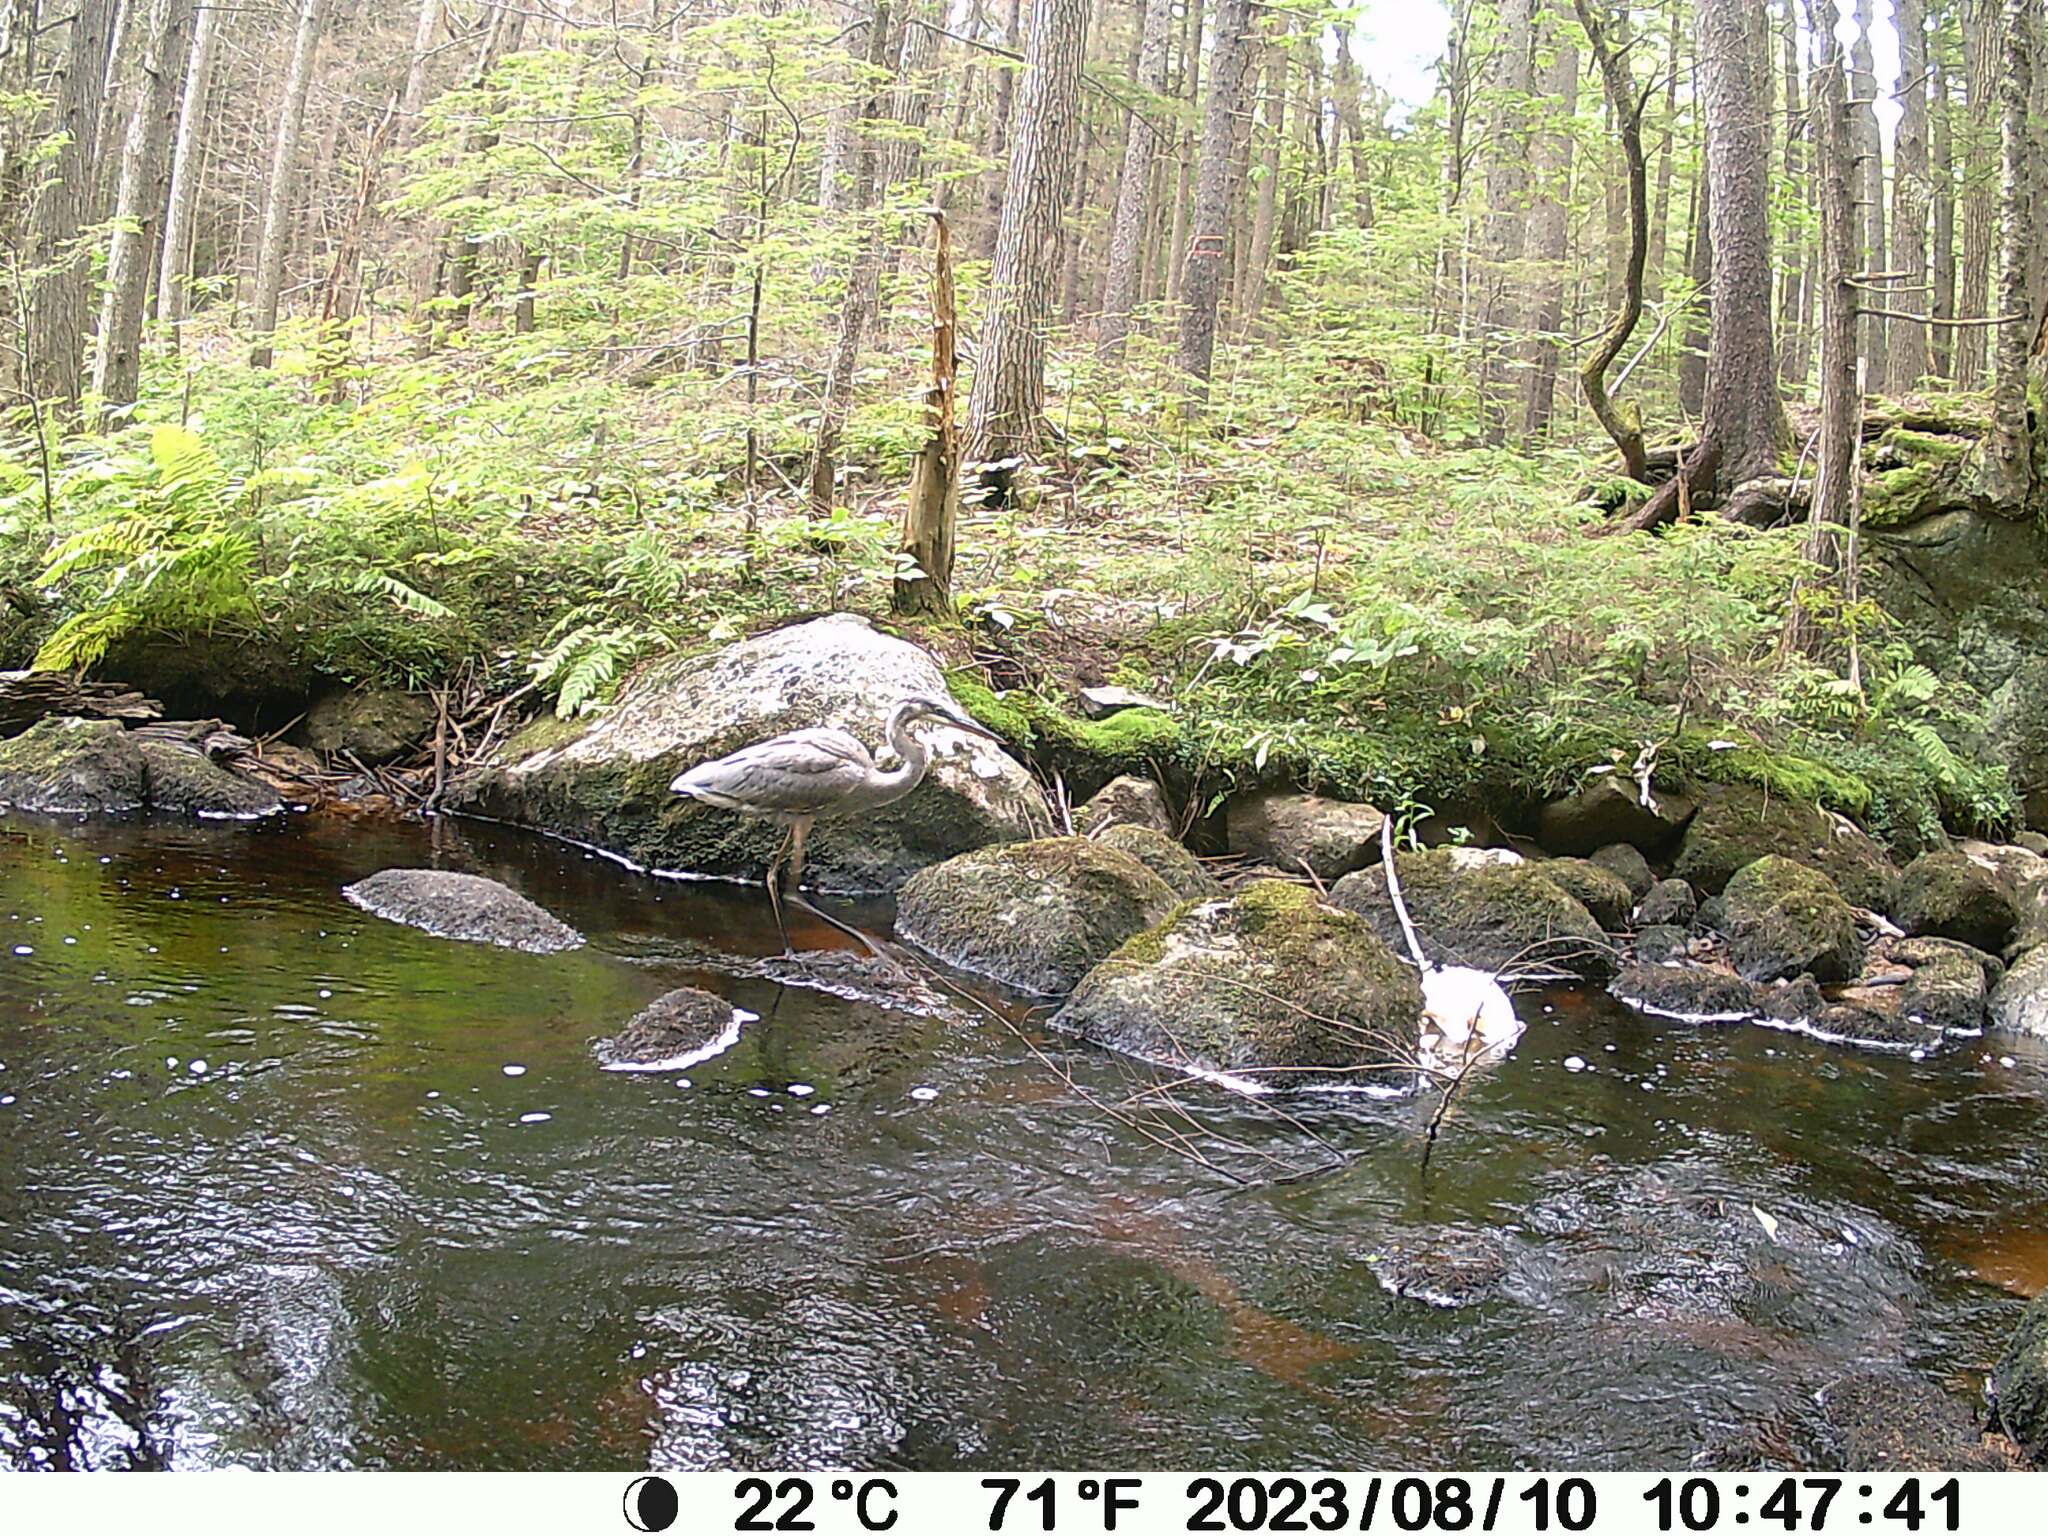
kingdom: Animalia
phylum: Chordata
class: Aves
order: Pelecaniformes
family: Ardeidae
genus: Ardea
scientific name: Ardea herodias
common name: Great blue heron
